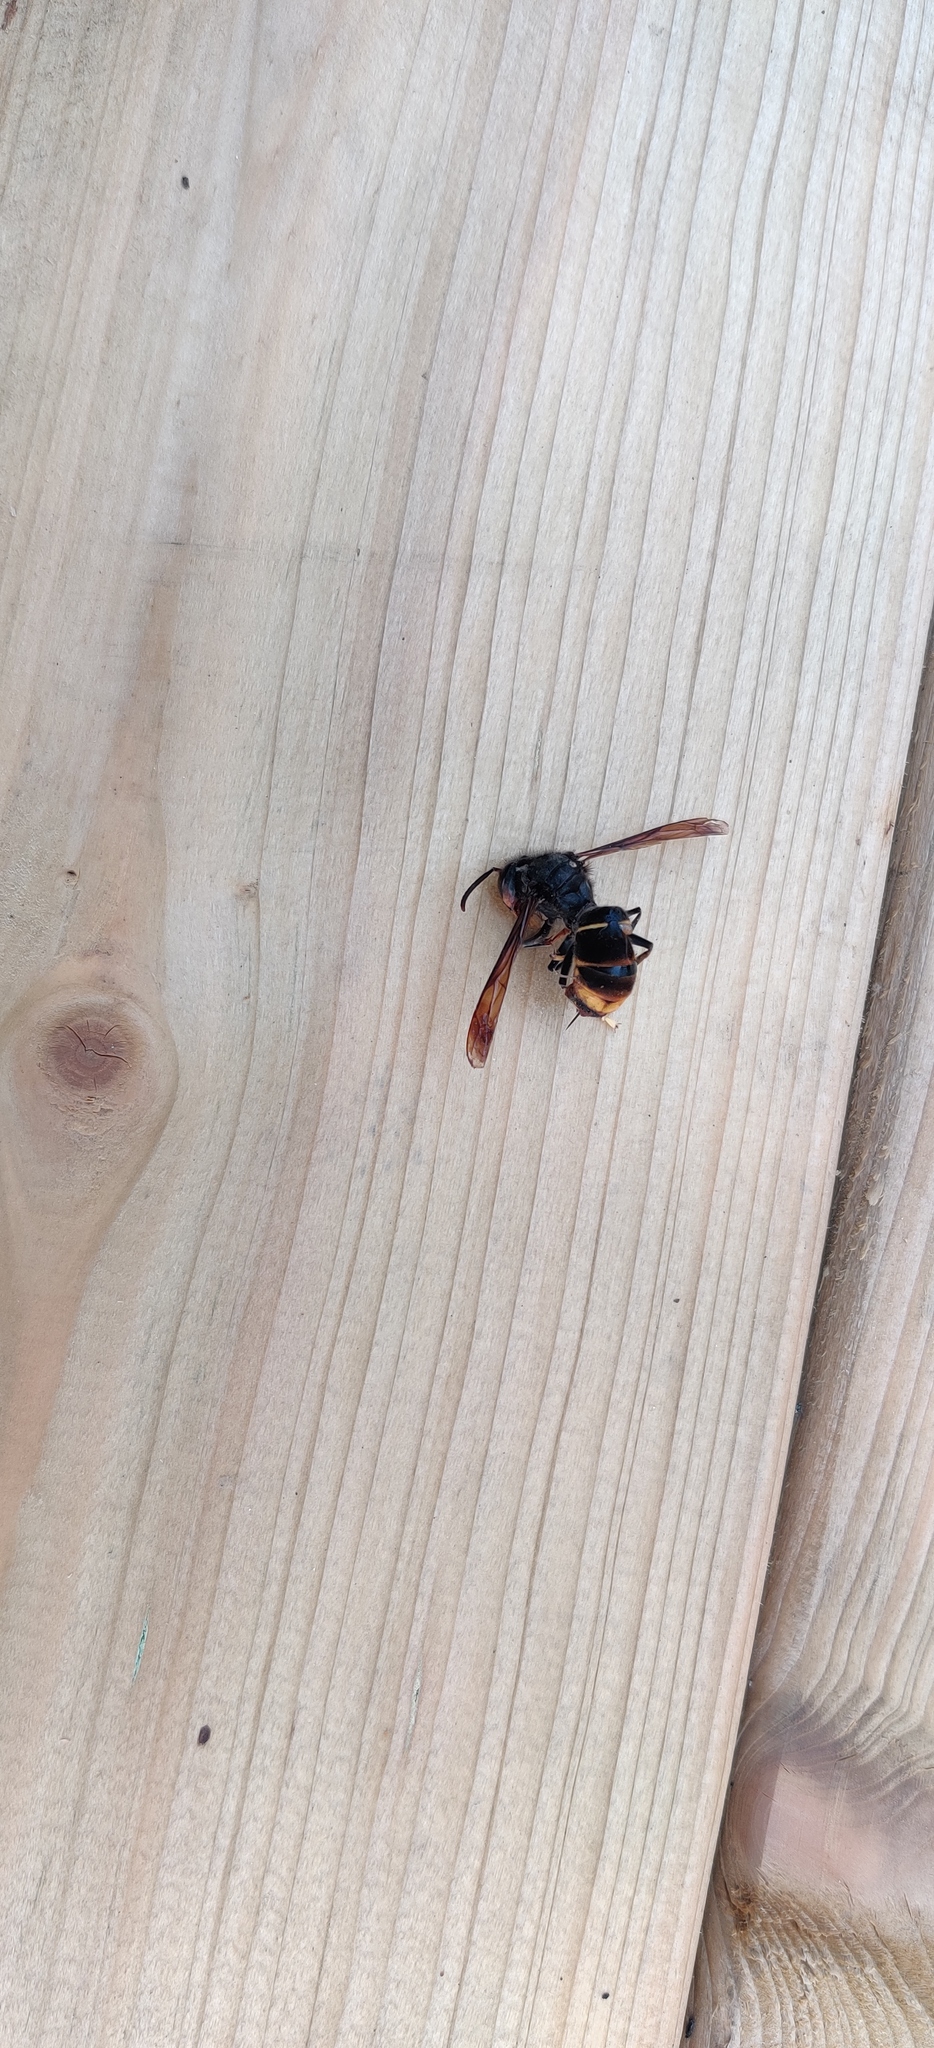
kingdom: Animalia
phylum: Arthropoda
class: Insecta
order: Hymenoptera
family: Vespidae
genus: Vespa
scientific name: Vespa velutina
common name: Asian hornet
